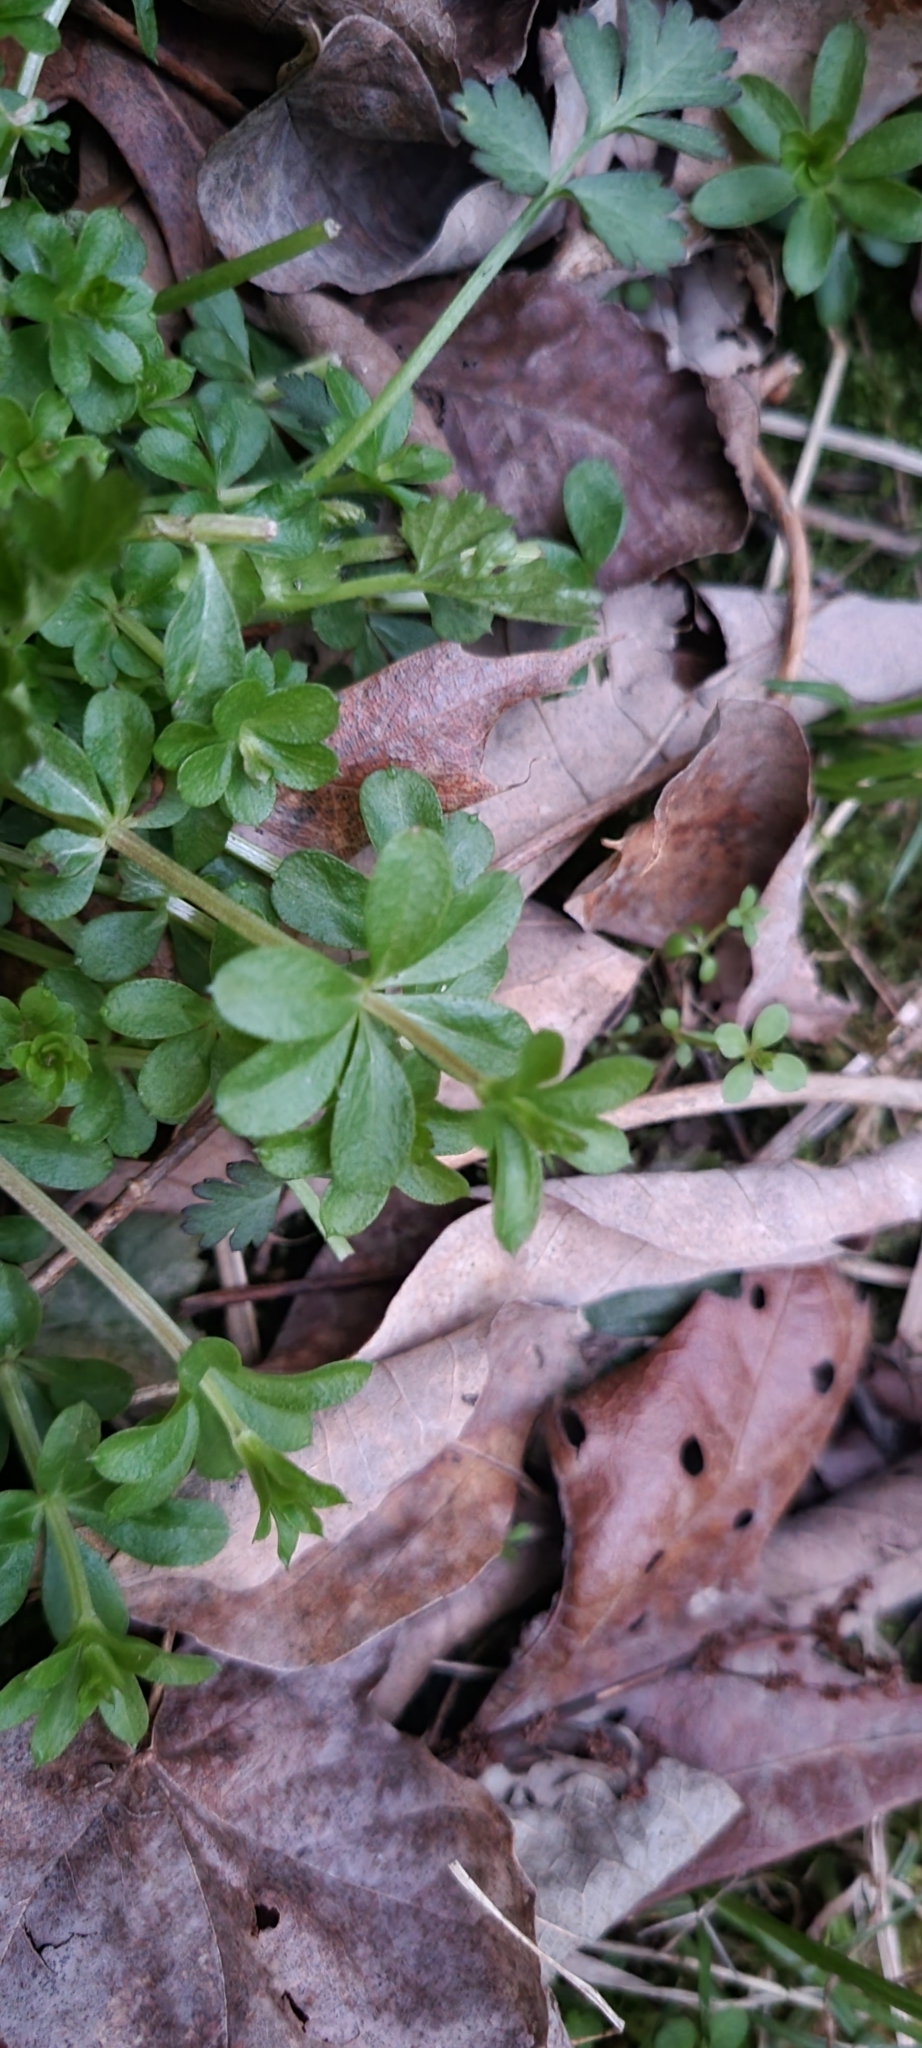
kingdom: Plantae
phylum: Tracheophyta
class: Magnoliopsida
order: Gentianales
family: Rubiaceae
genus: Galium
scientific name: Galium triflorum
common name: Fragrant bedstraw
